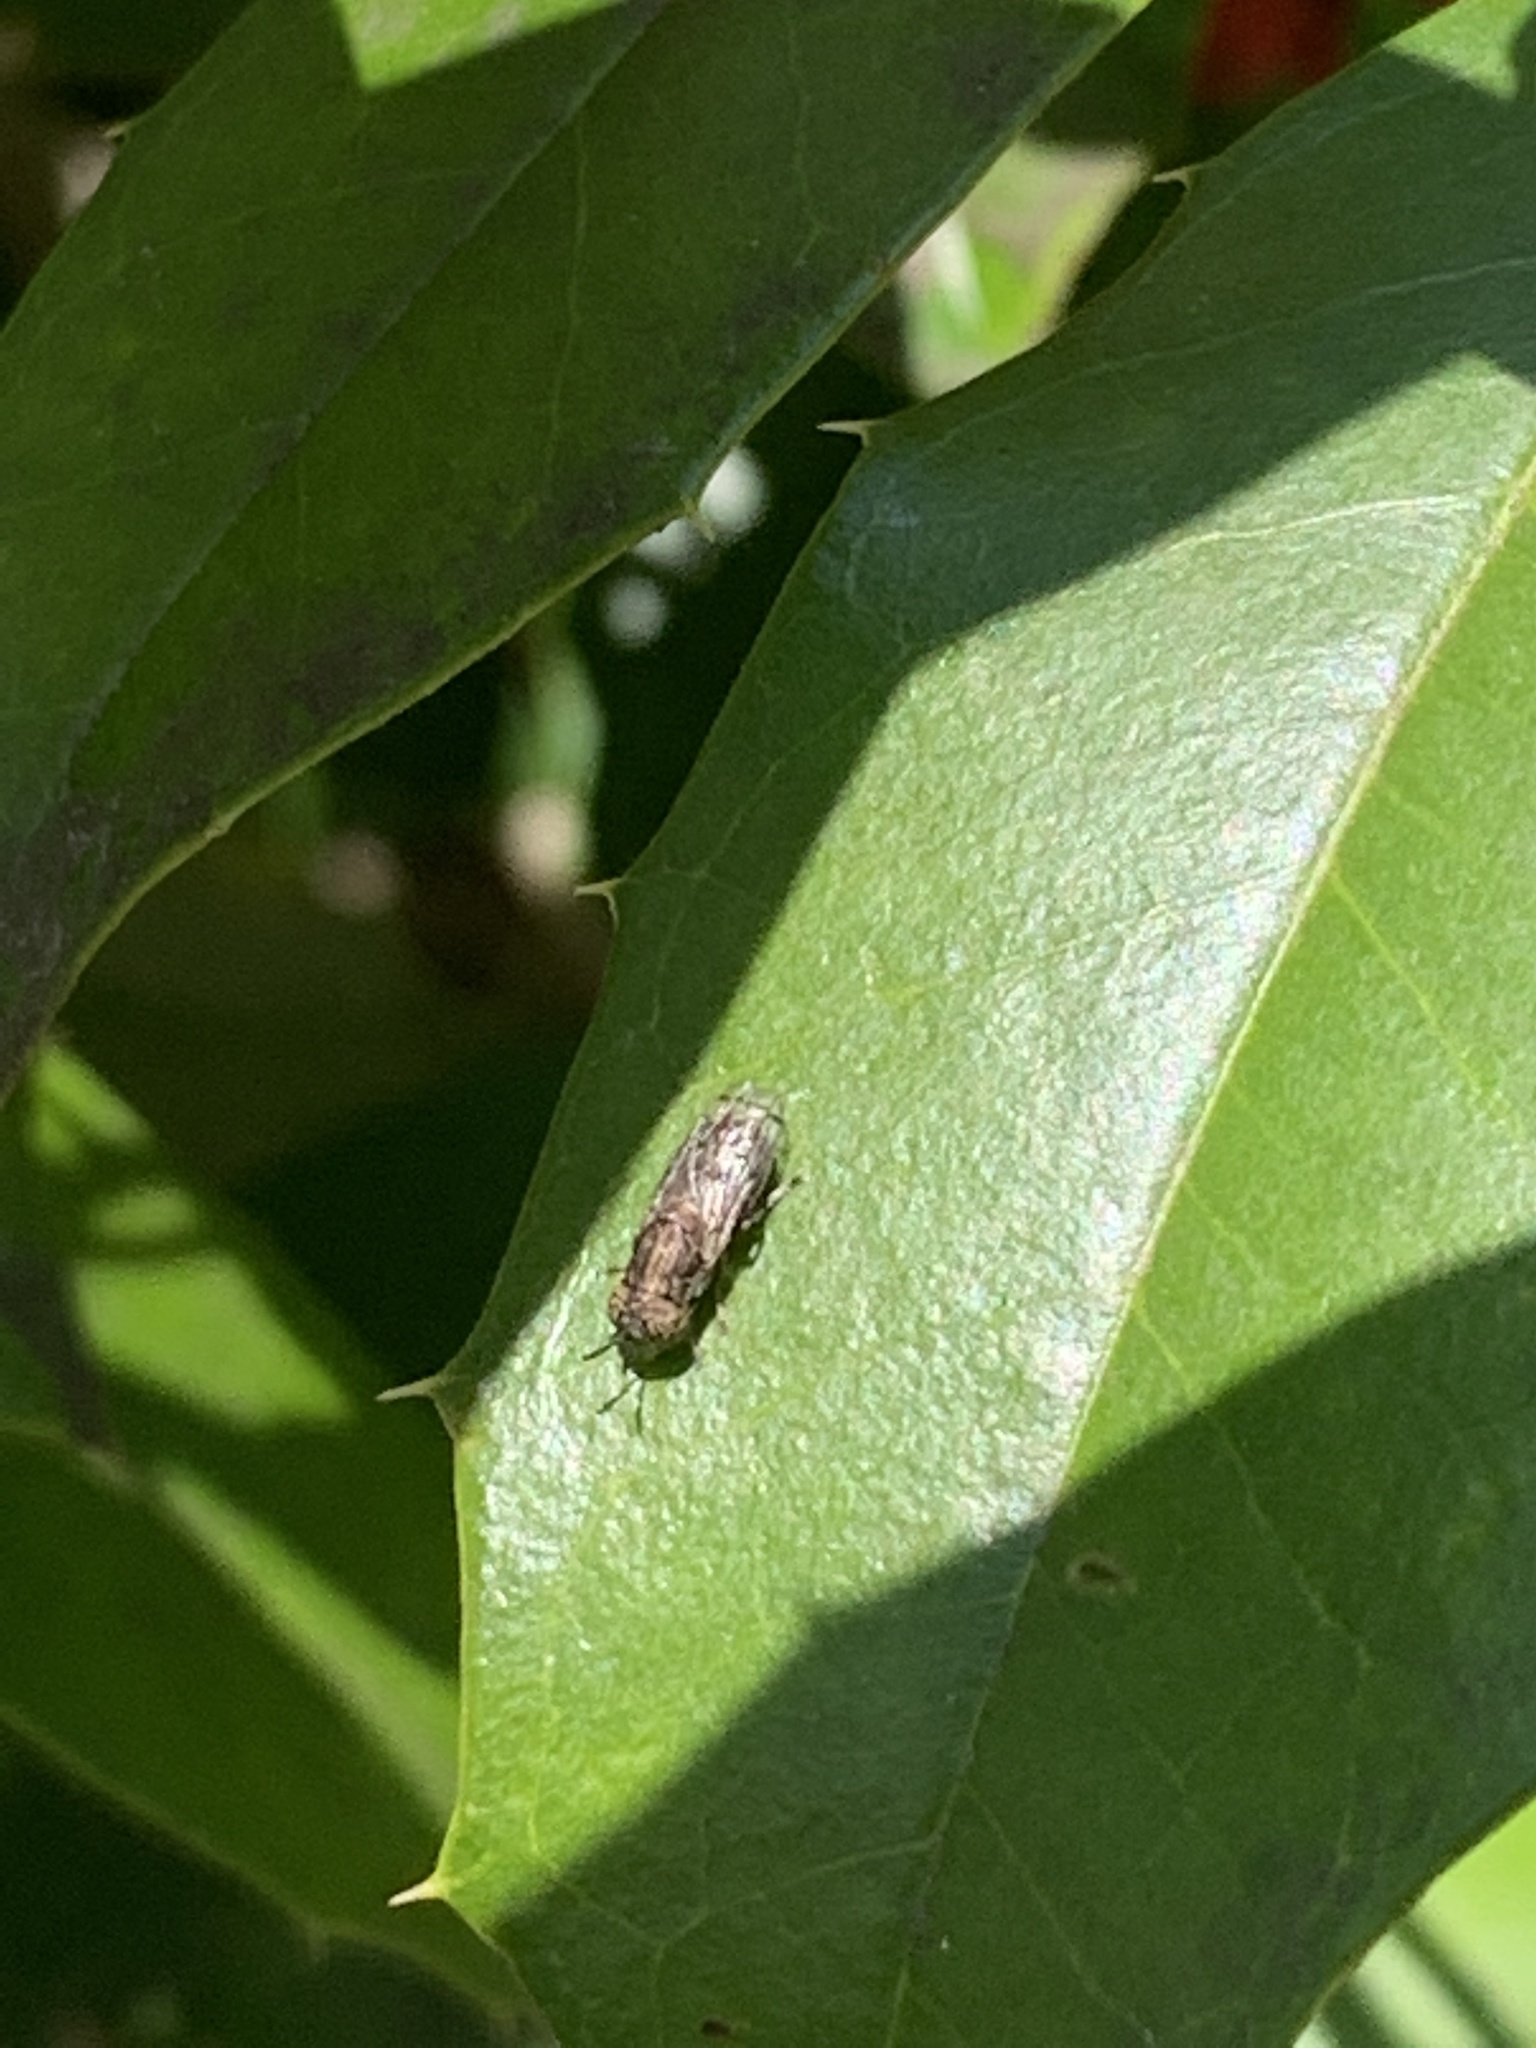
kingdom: Animalia
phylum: Arthropoda
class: Insecta
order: Diptera
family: Syrphidae
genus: Orthonevra
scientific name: Orthonevra nitida
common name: Wavy mucksucker
